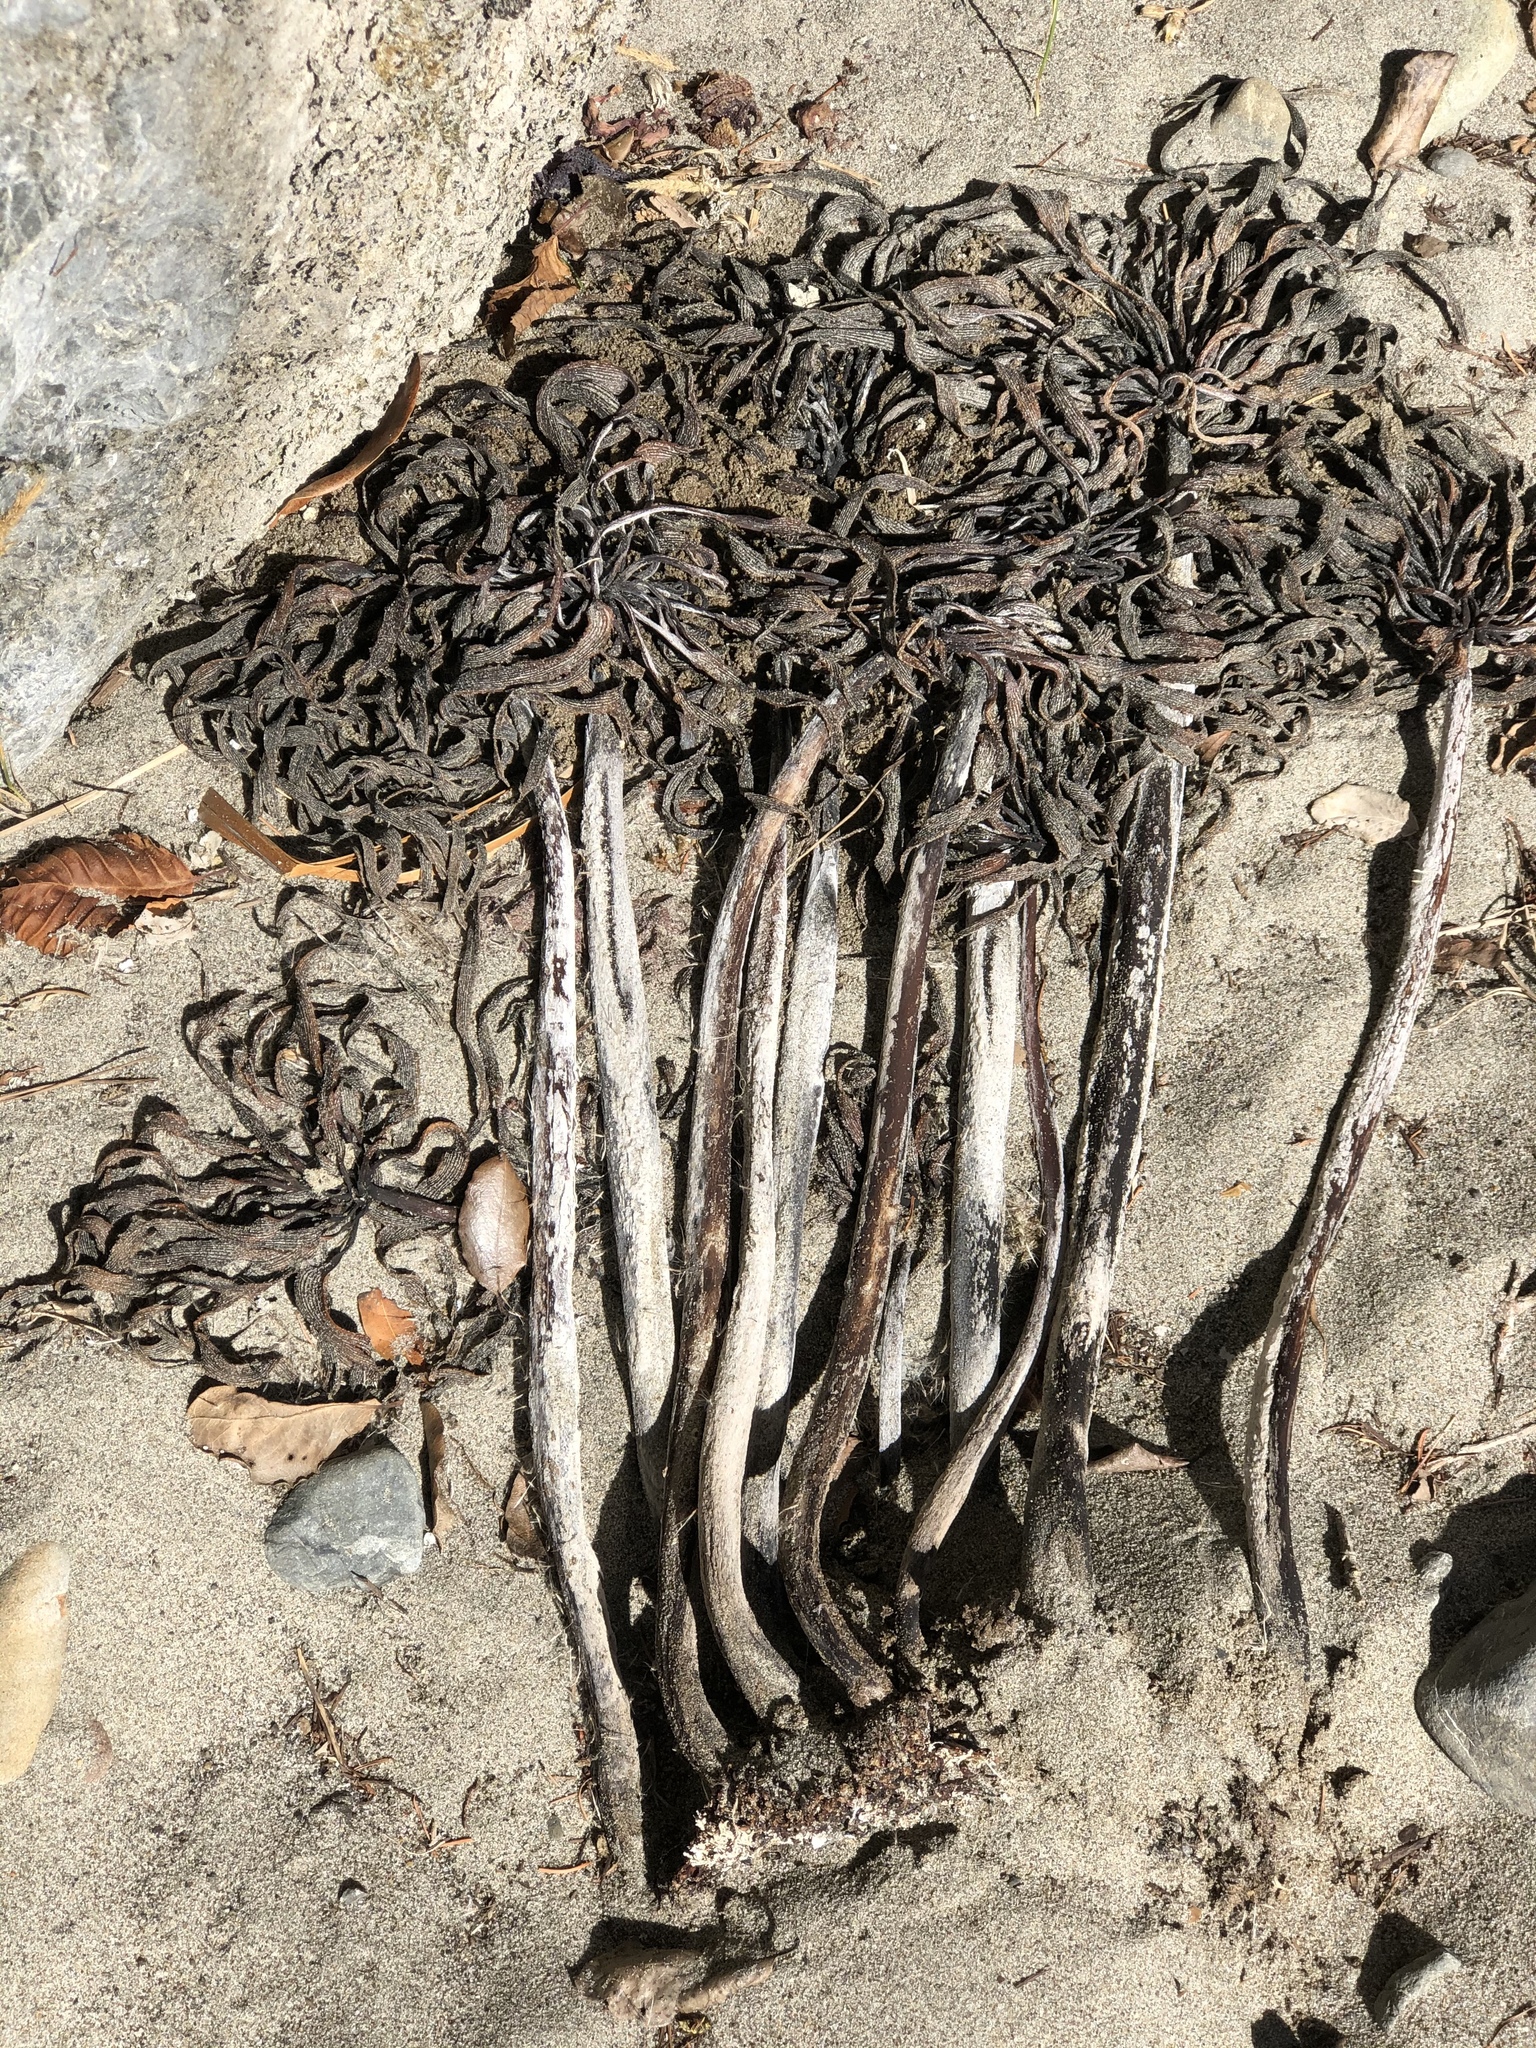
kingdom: Chromista
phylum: Ochrophyta
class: Phaeophyceae
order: Laminariales
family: Laminariaceae
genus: Postelsia
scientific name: Postelsia palmiformis
